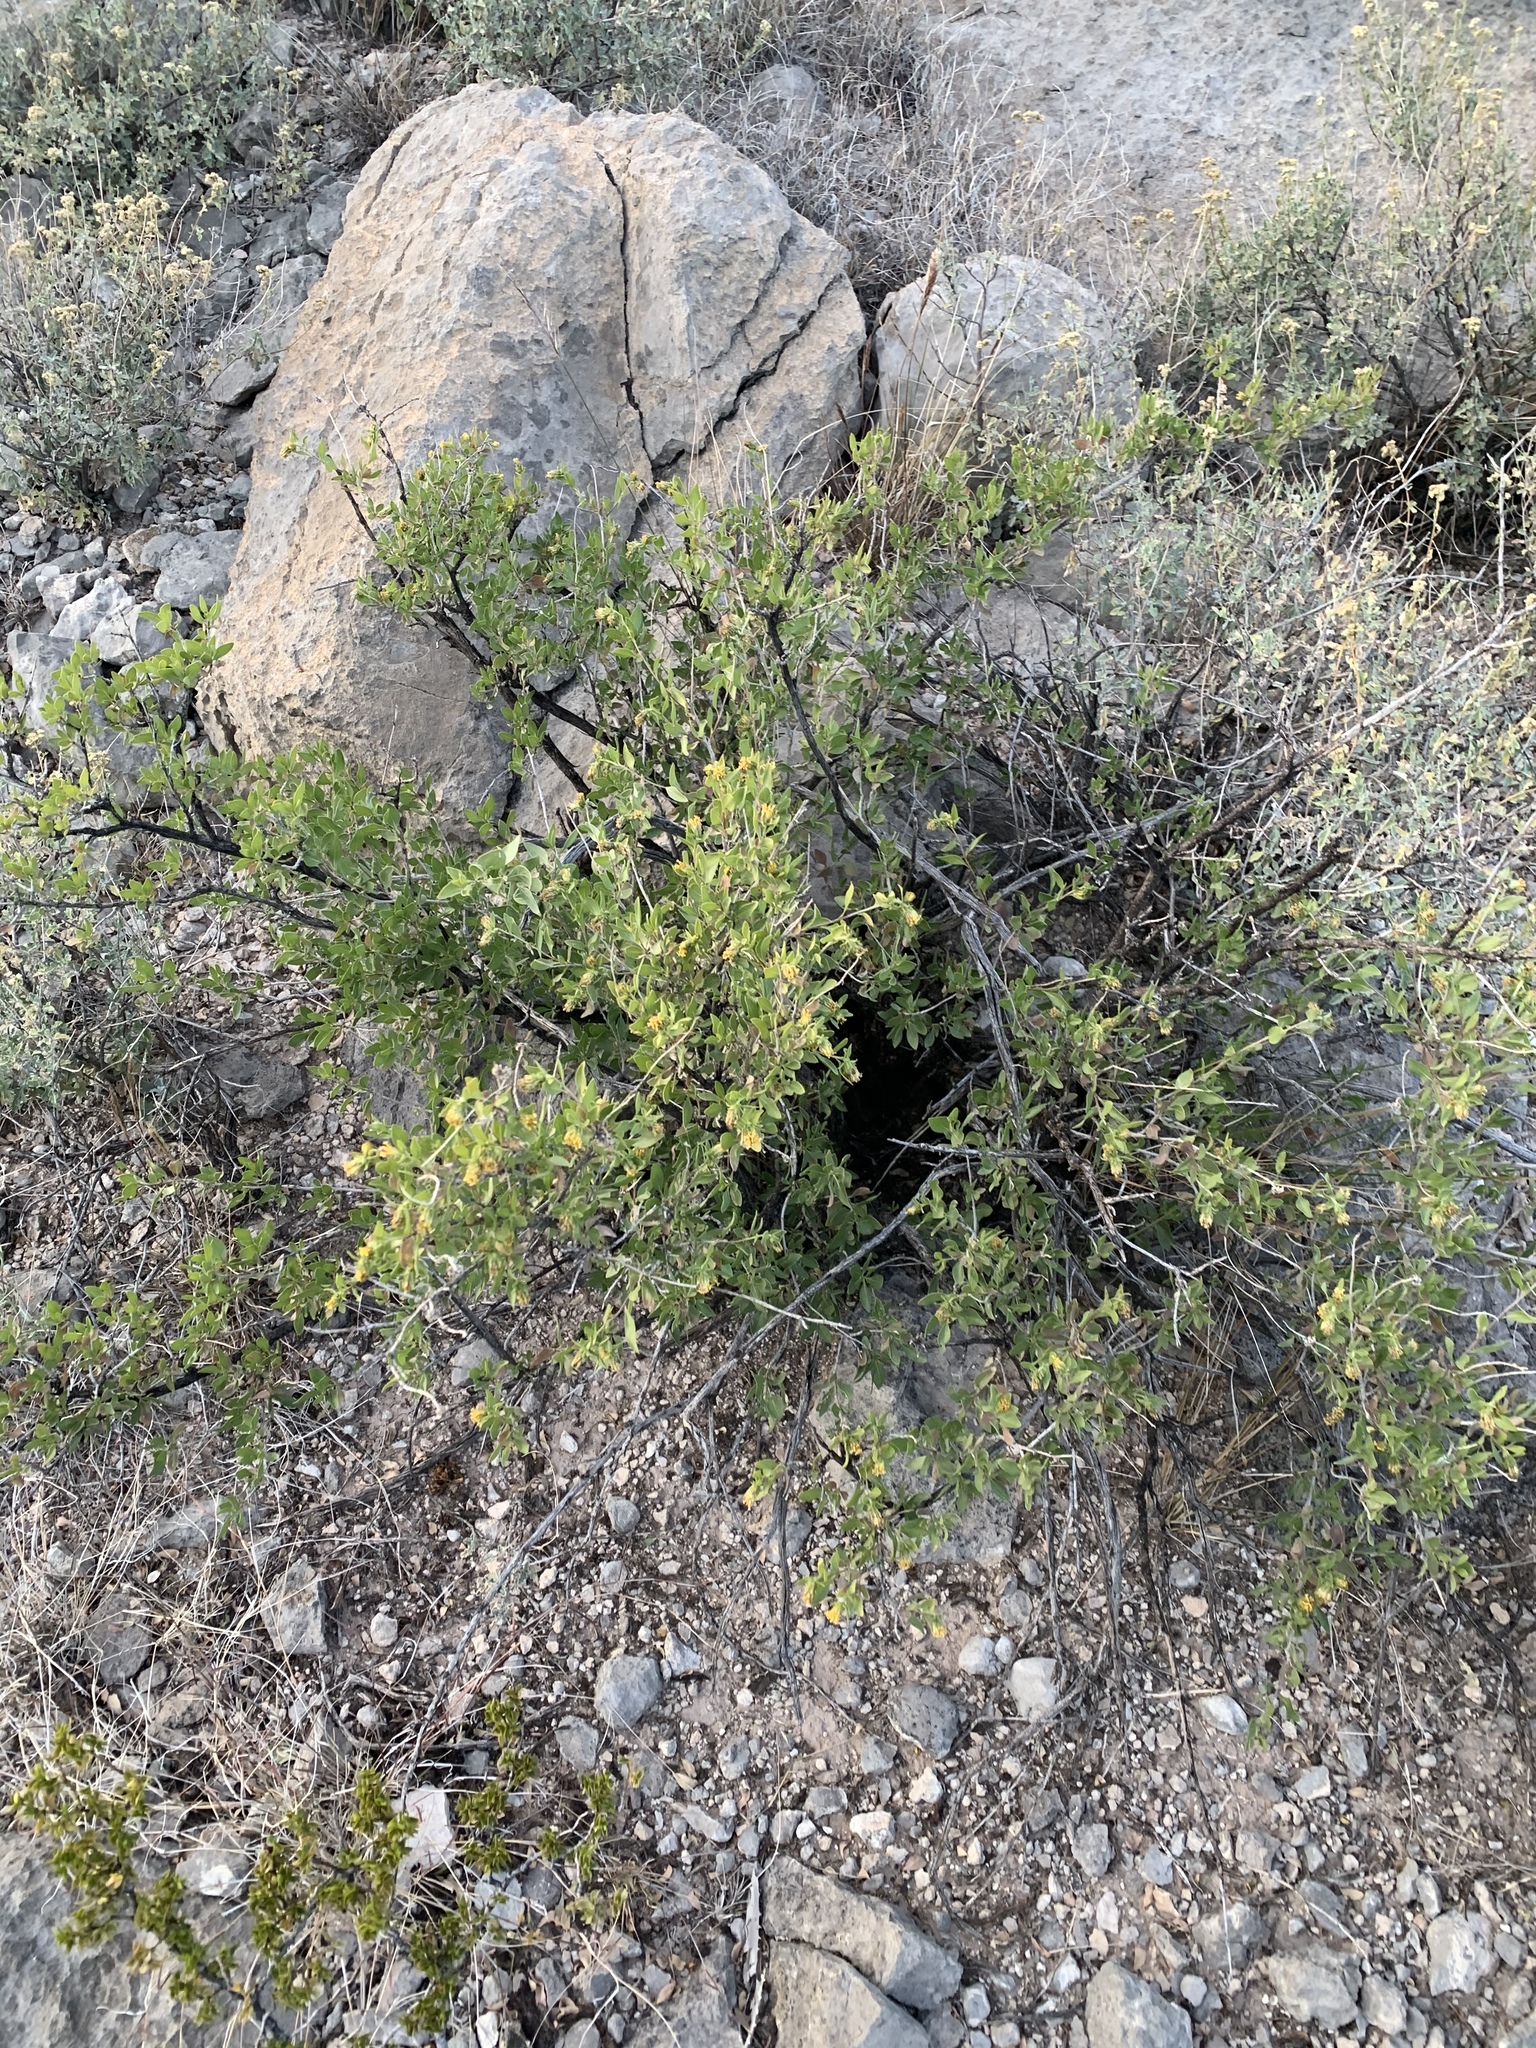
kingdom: Plantae
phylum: Tracheophyta
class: Magnoliopsida
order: Asterales
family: Asteraceae
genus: Flourensia
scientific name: Flourensia cernua
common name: Varnishbush
